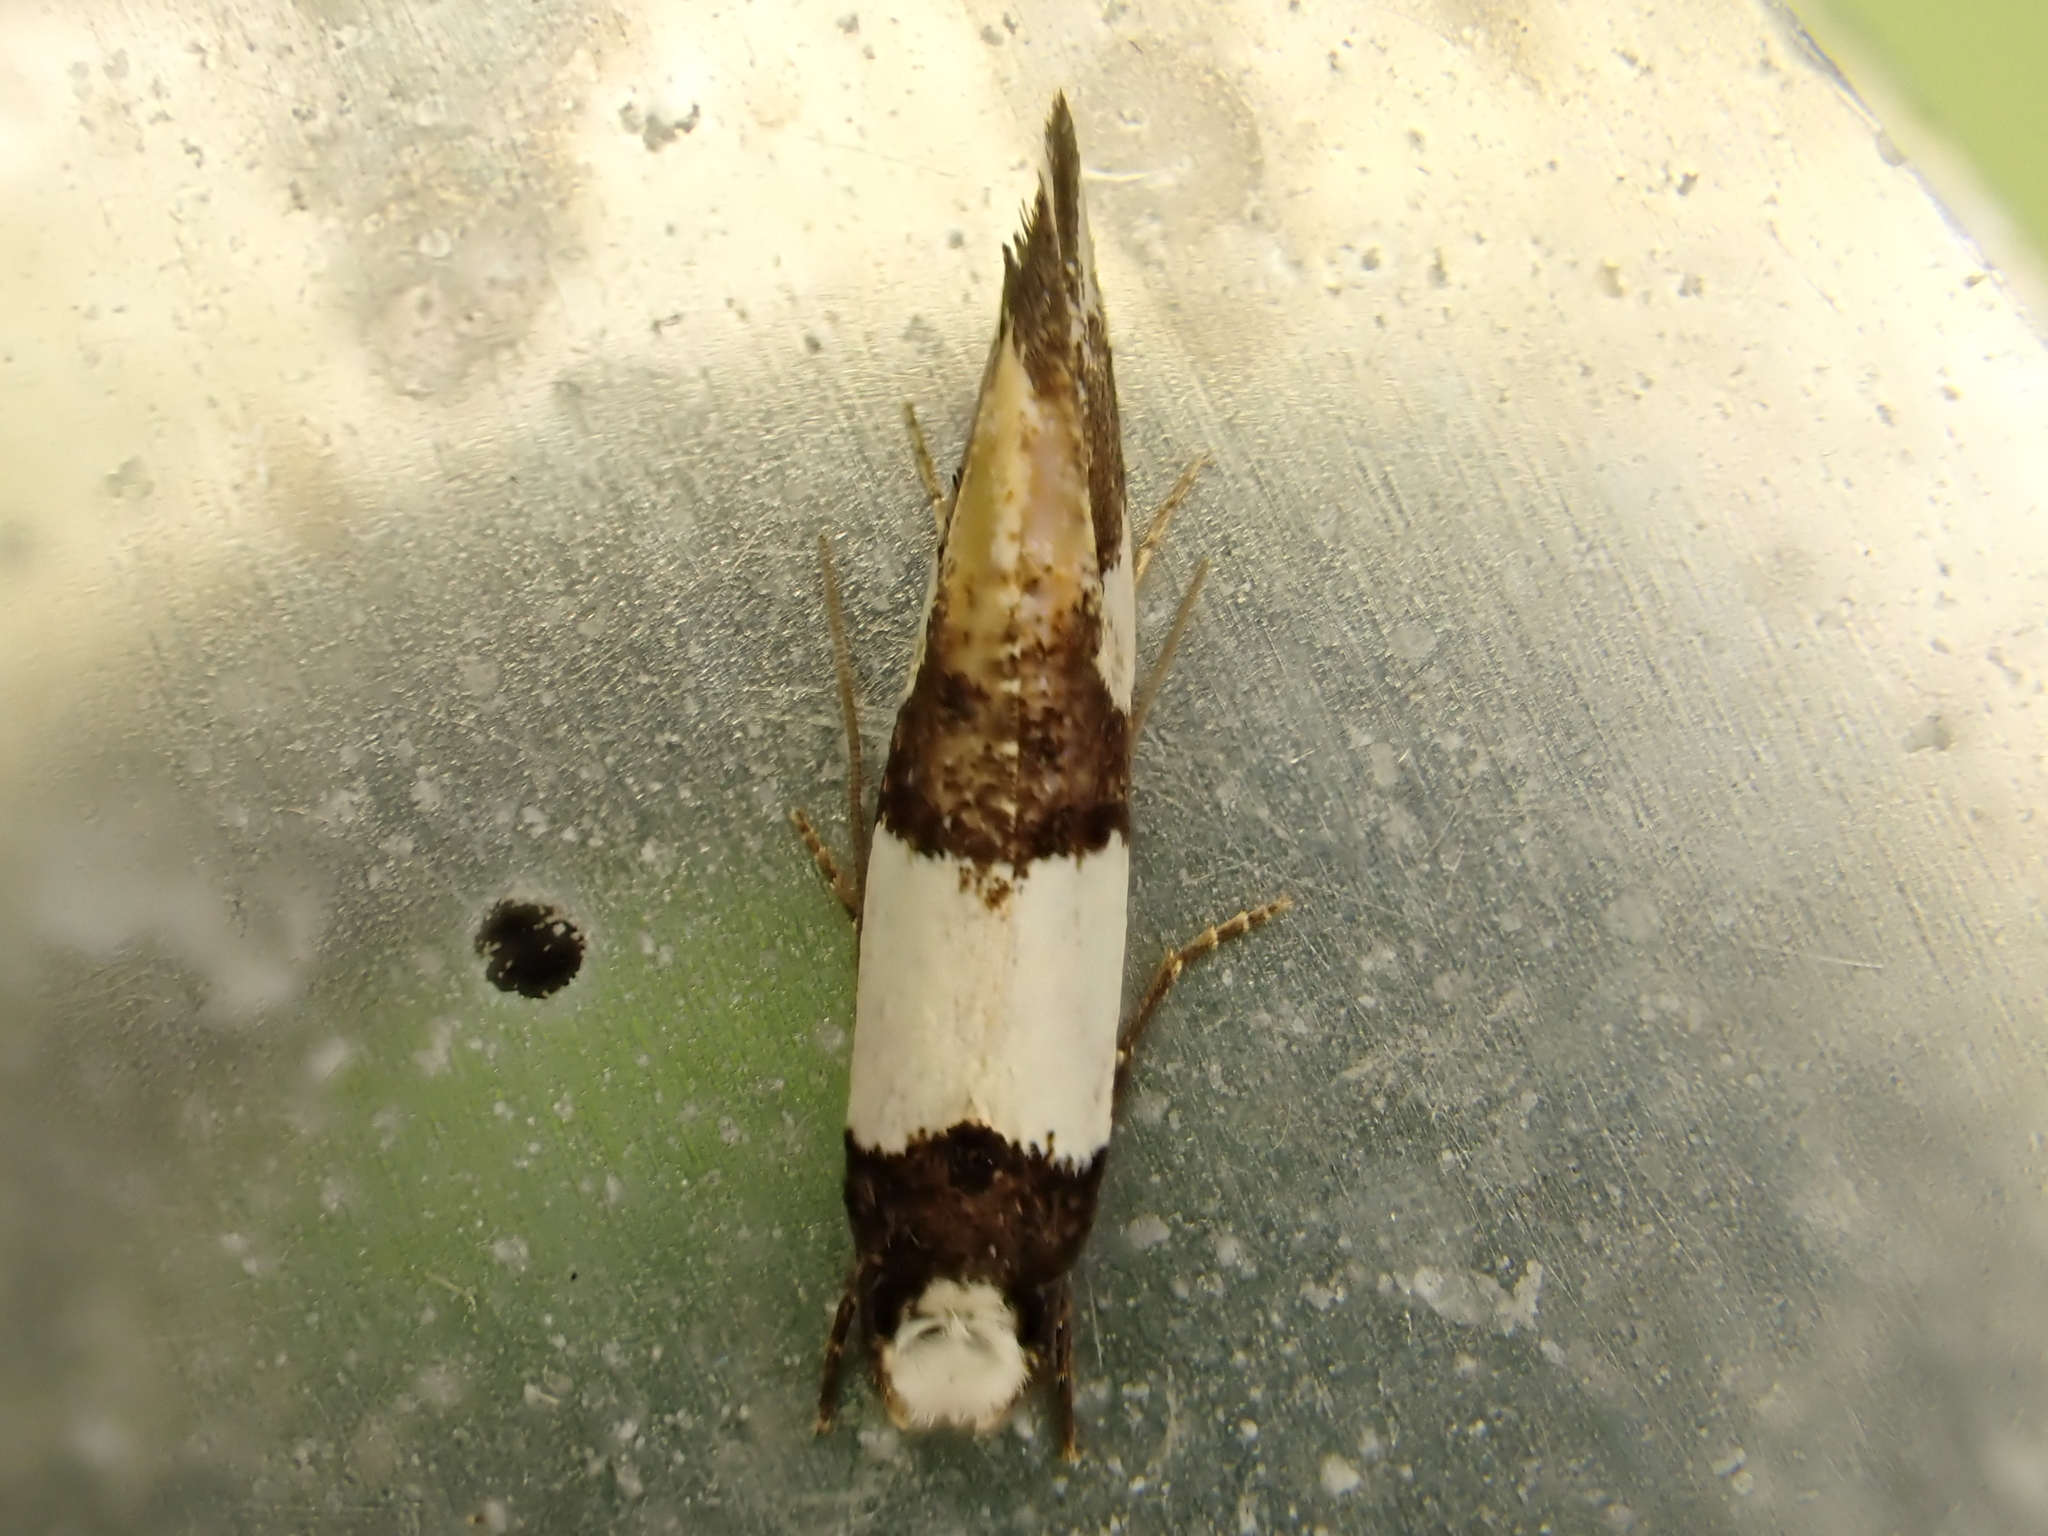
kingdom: Animalia
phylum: Arthropoda
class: Insecta
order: Lepidoptera
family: Tineidae
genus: Monopis
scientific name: Monopis icterogastra
